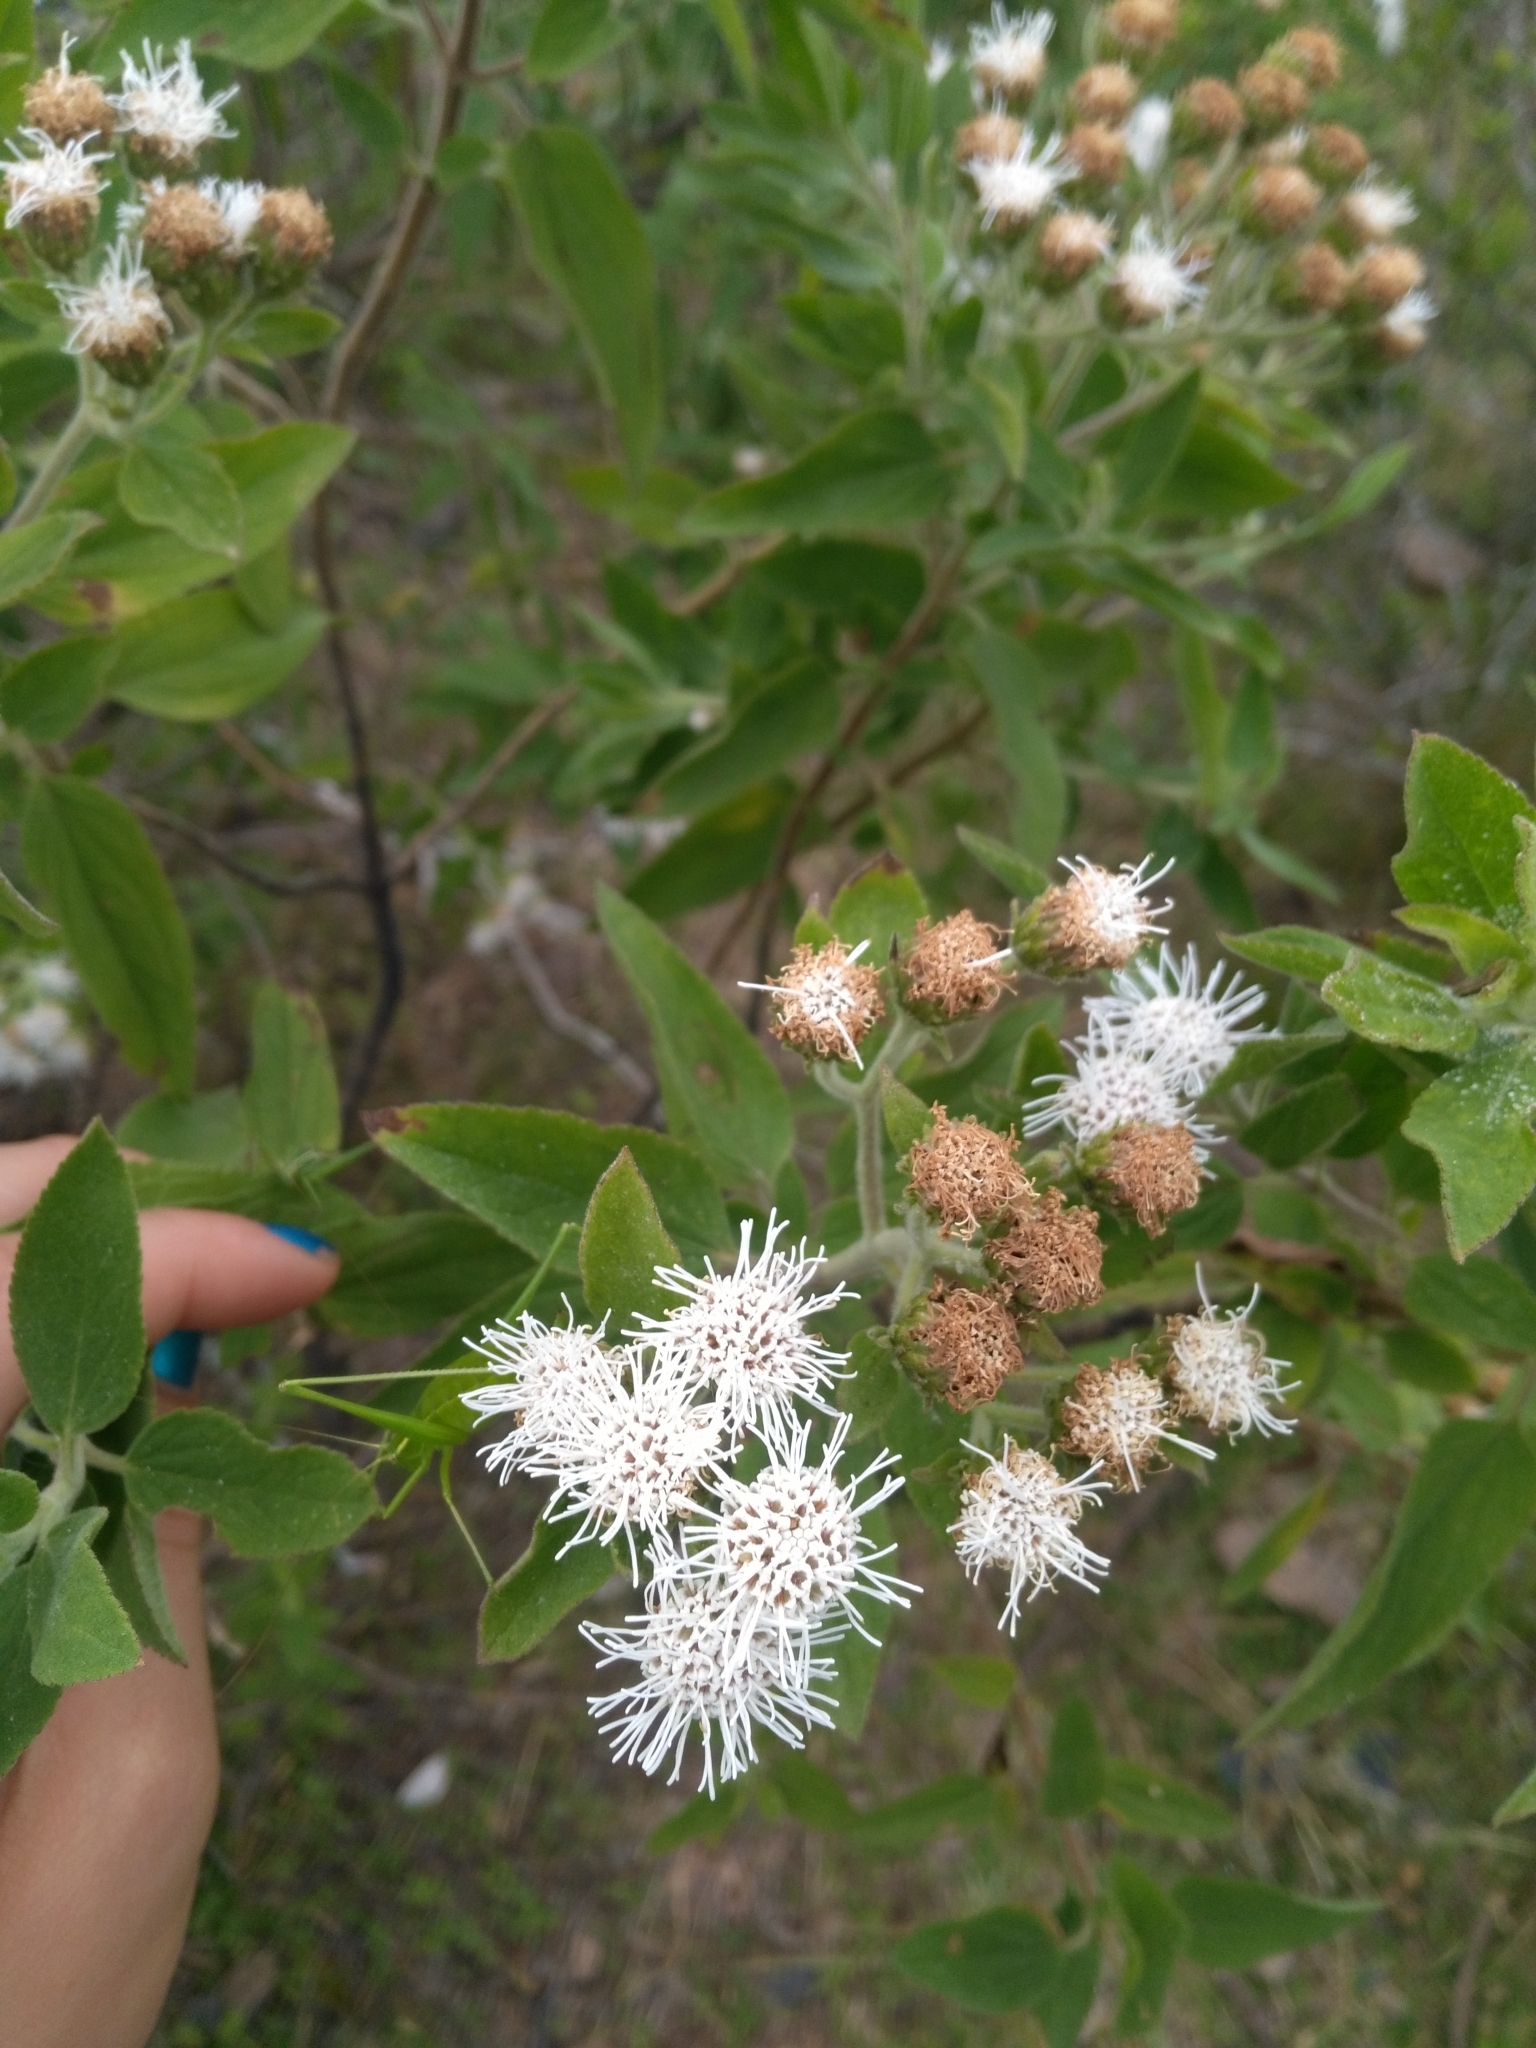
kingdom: Plantae
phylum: Tracheophyta
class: Magnoliopsida
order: Asterales
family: Asteraceae
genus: Radlkoferotoma
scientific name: Radlkoferotoma cistifolium
